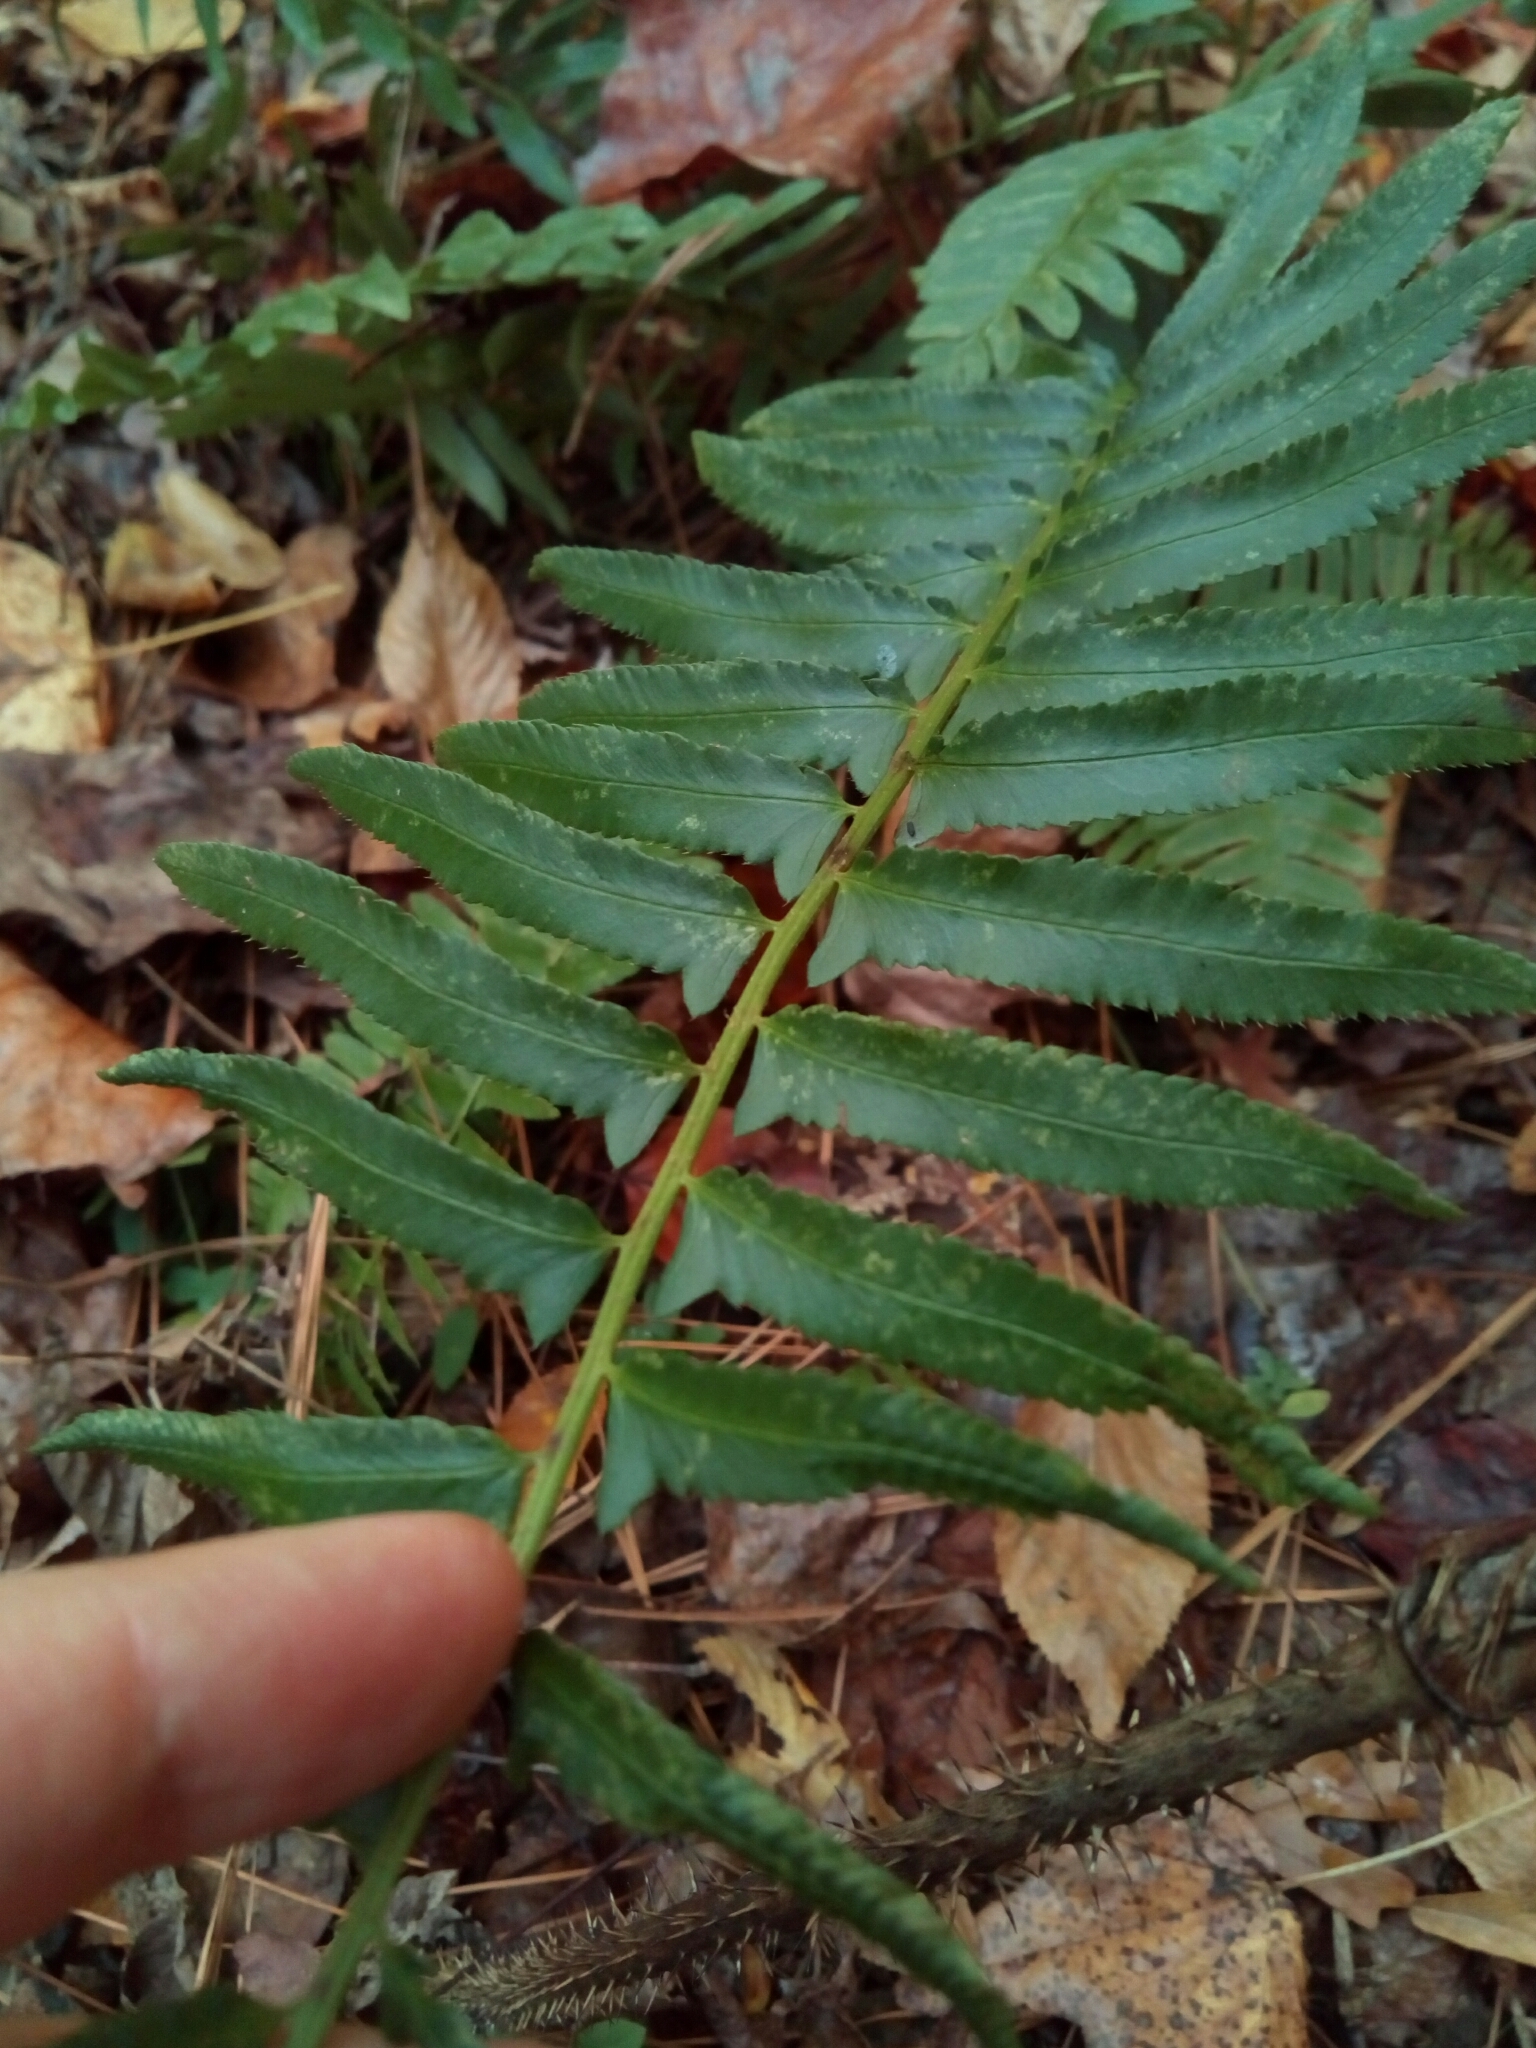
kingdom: Plantae
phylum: Tracheophyta
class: Polypodiopsida
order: Polypodiales
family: Dryopteridaceae
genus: Polystichum
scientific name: Polystichum acrostichoides
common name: Christmas fern
